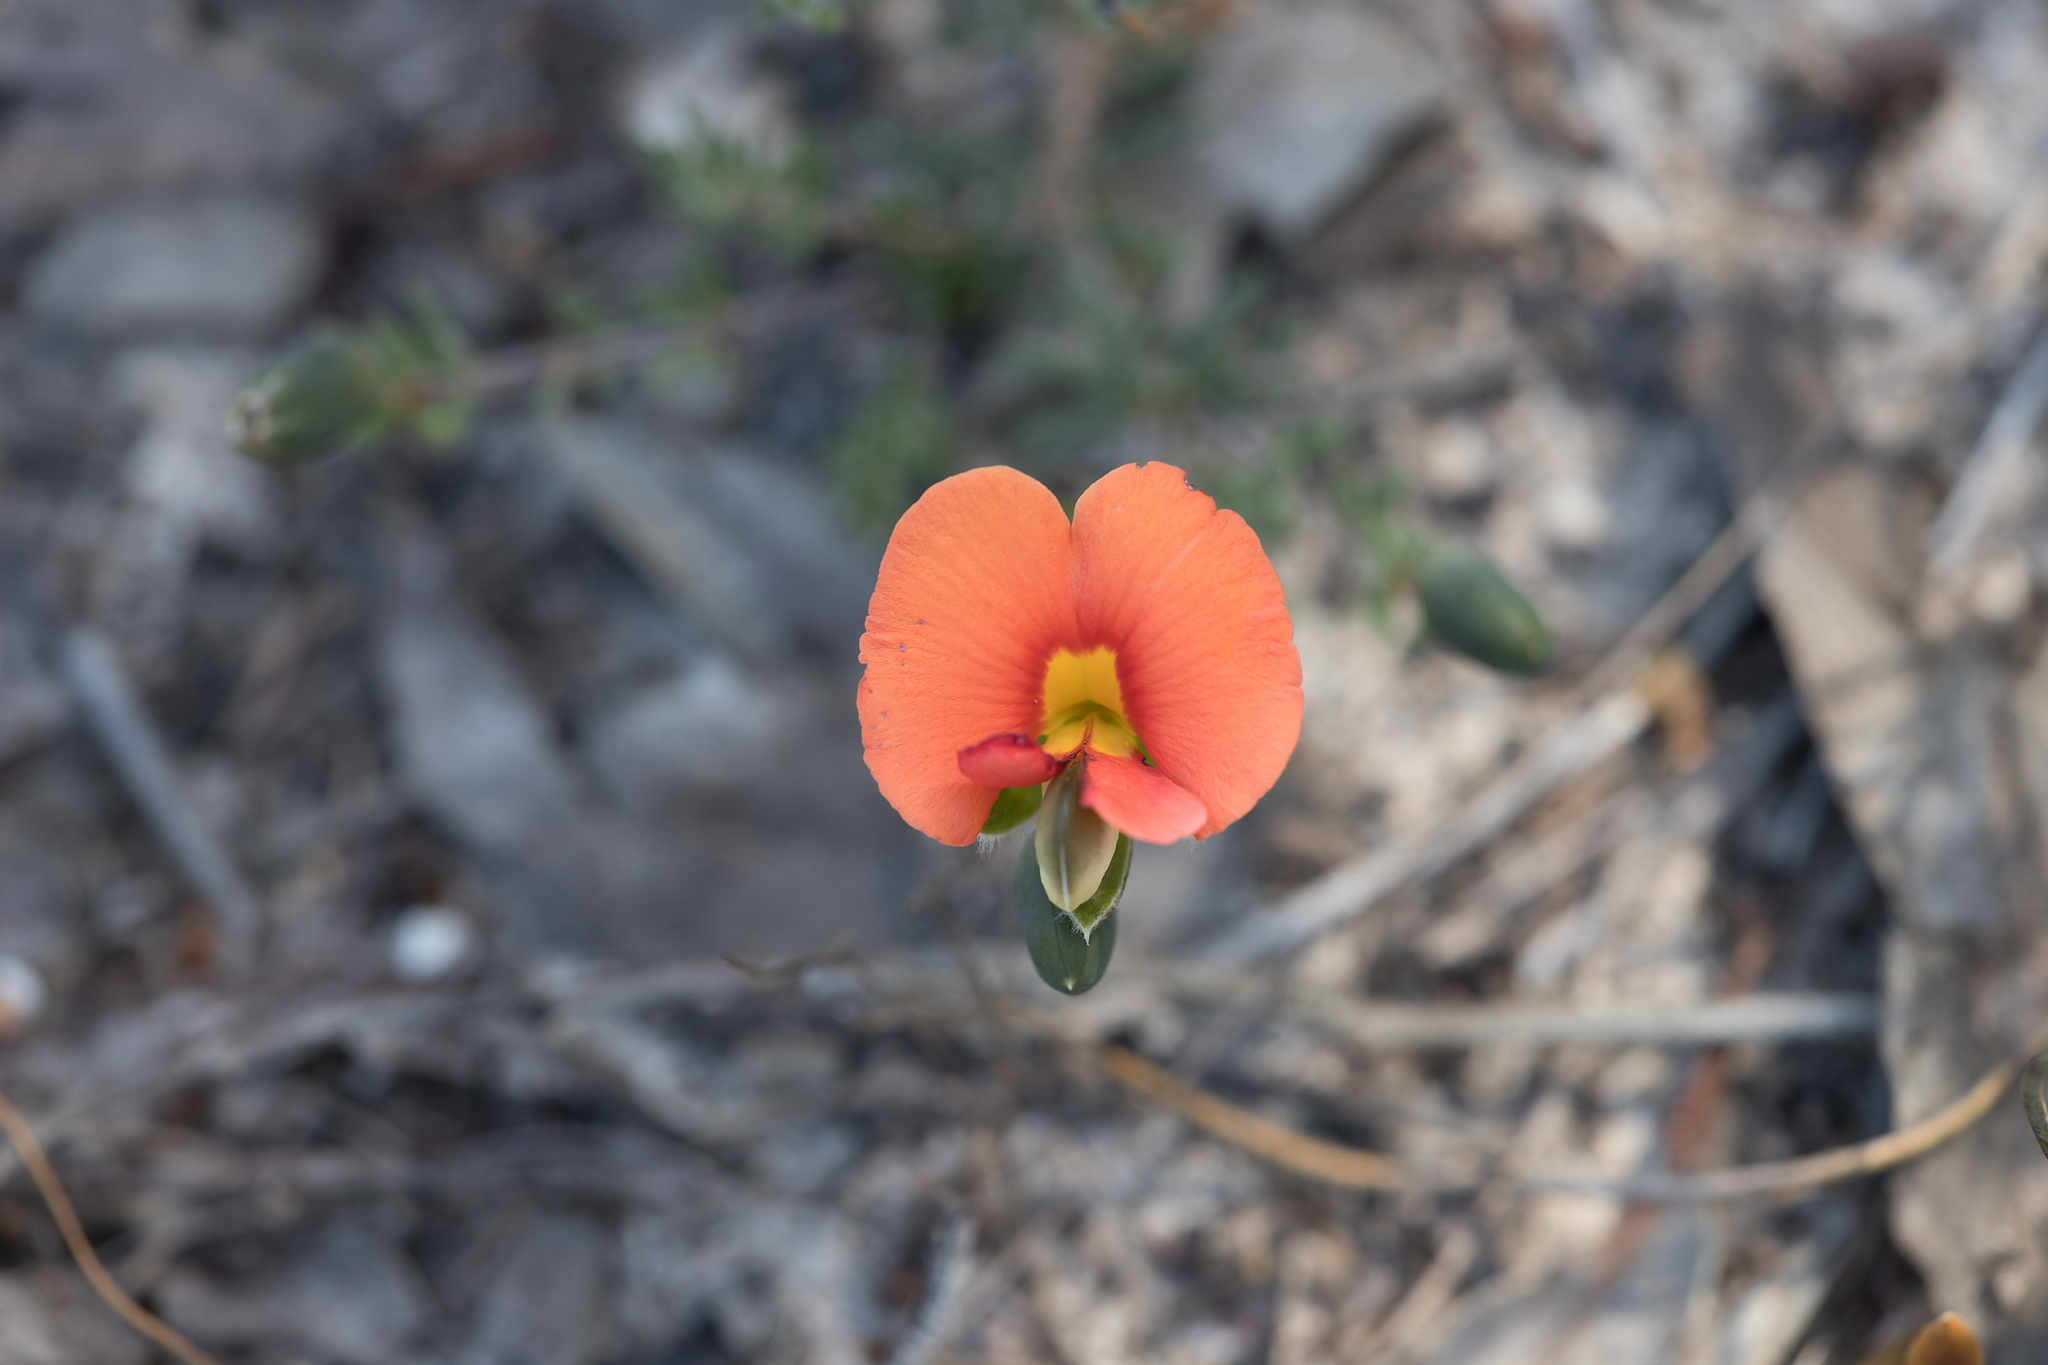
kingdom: Plantae
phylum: Tracheophyta
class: Magnoliopsida
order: Fabales
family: Fabaceae
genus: Gompholobium
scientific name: Gompholobium ecostatum
